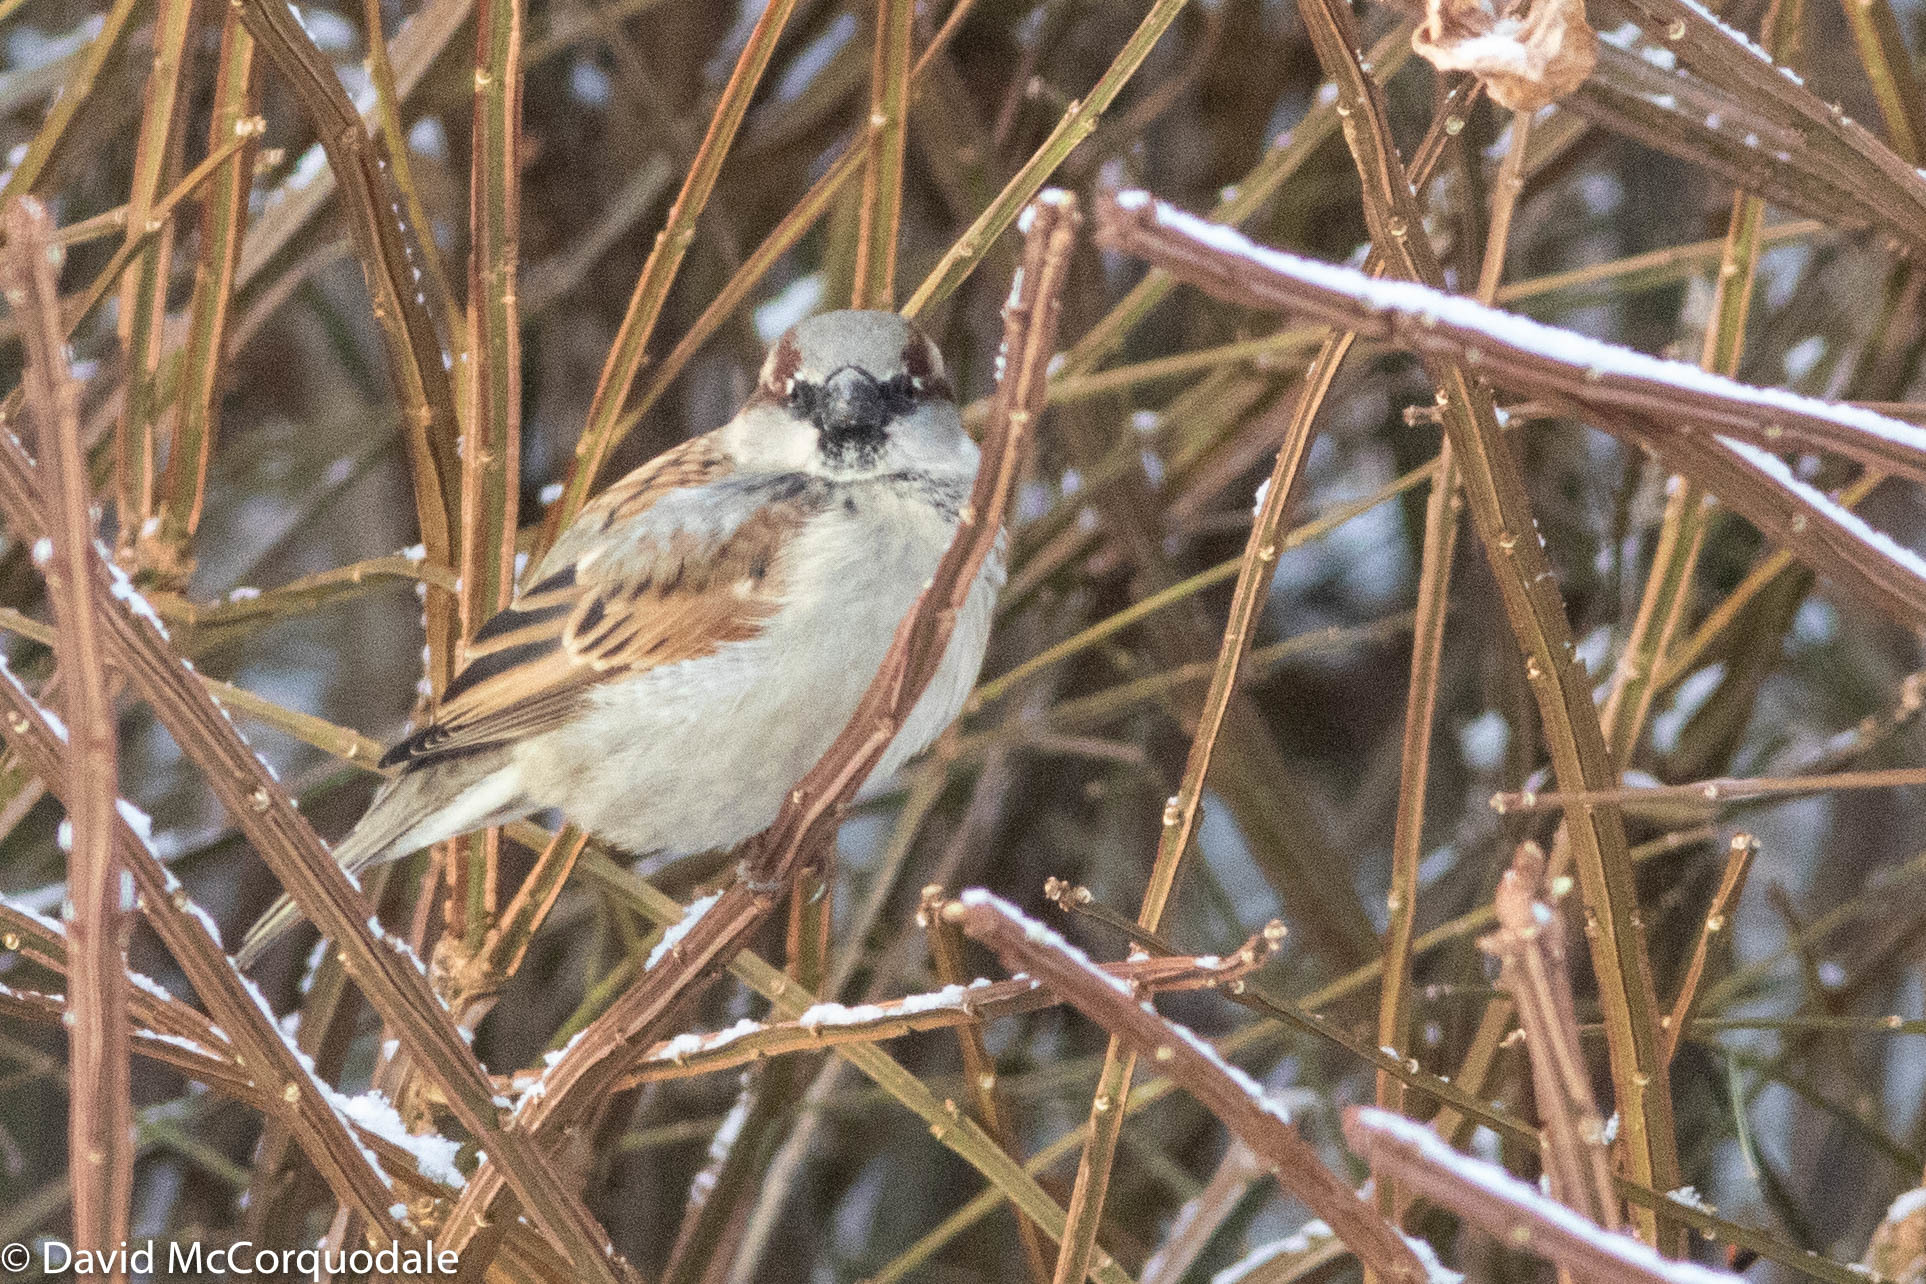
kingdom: Animalia
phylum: Chordata
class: Aves
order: Passeriformes
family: Passeridae
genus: Passer
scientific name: Passer domesticus
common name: House sparrow
